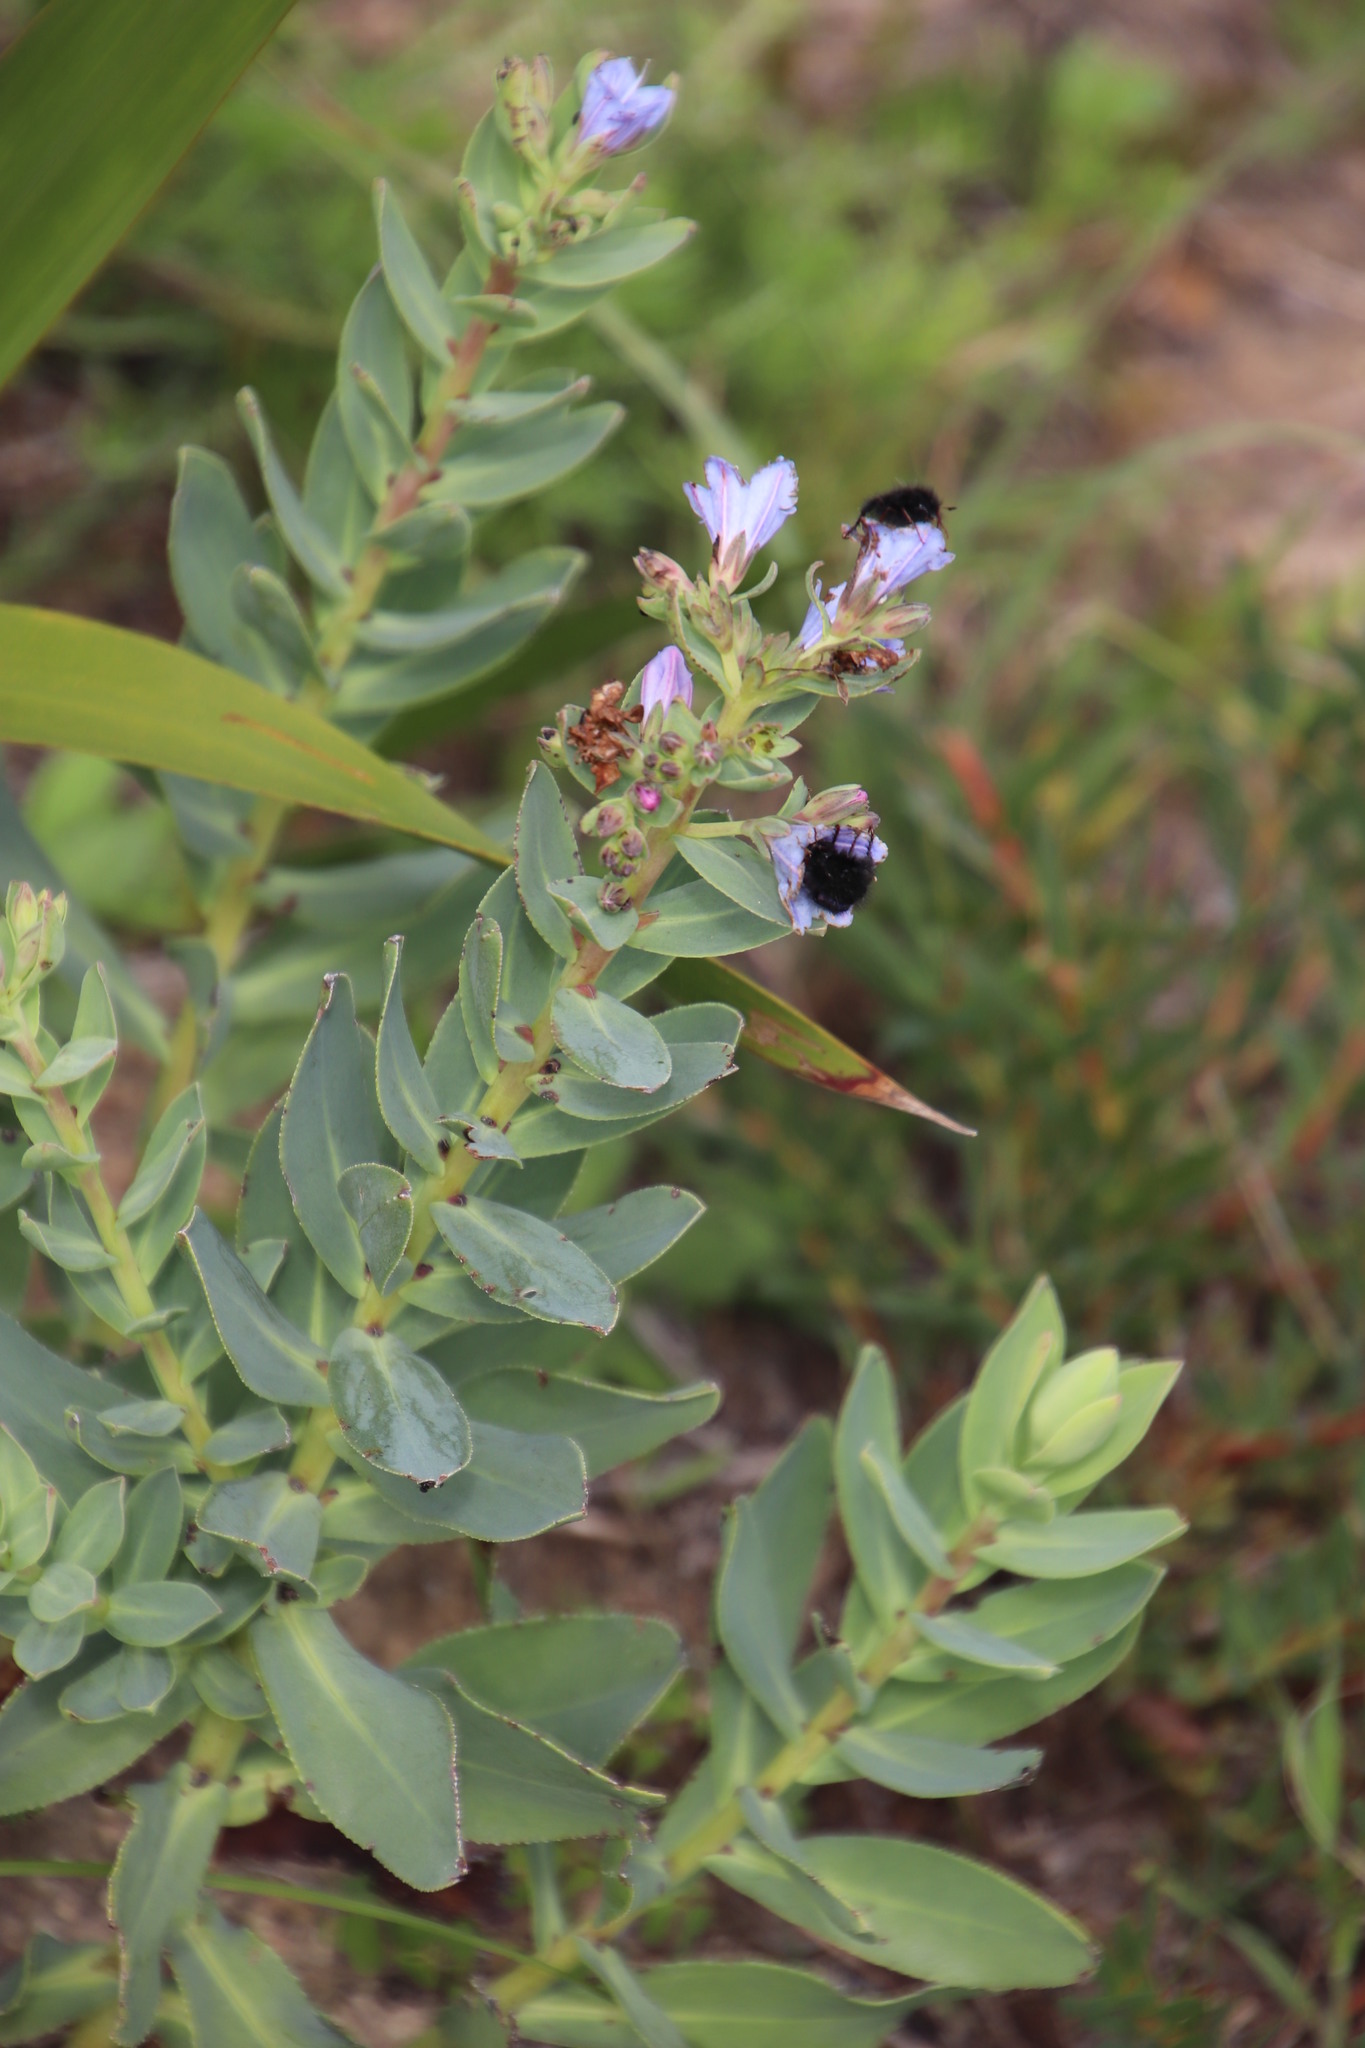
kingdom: Plantae
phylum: Tracheophyta
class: Magnoliopsida
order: Boraginales
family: Boraginaceae
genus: Lobostemon
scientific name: Lobostemon glaucophyllus
